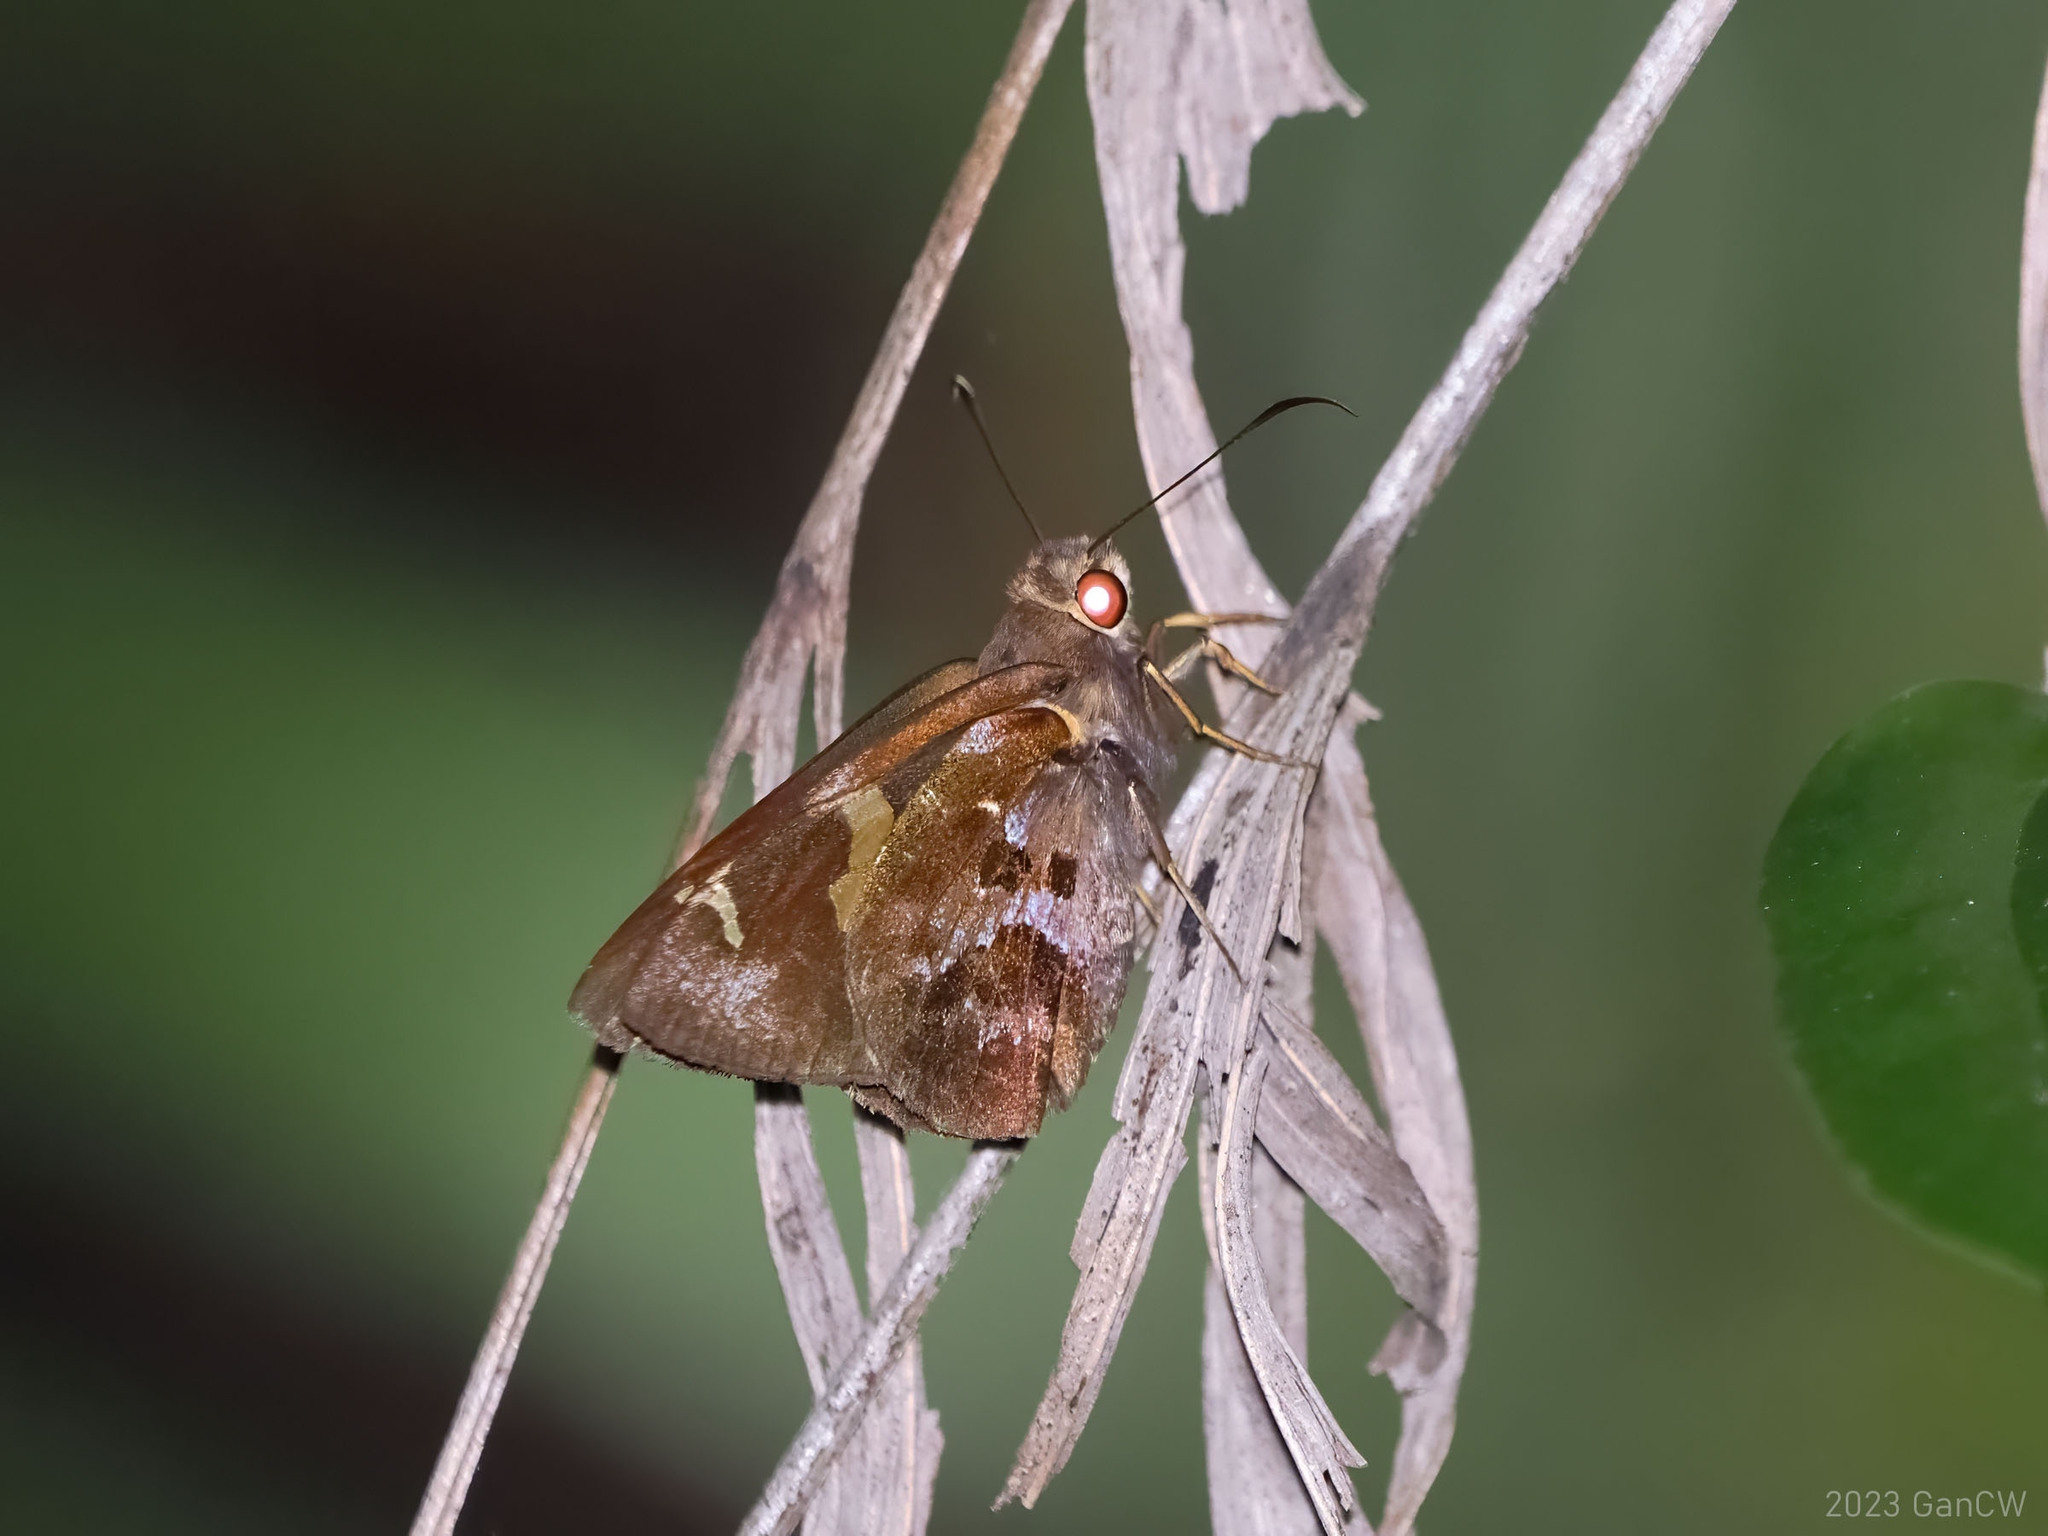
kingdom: Animalia
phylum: Arthropoda
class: Insecta
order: Lepidoptera
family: Hesperiidae
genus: Hewitsoniella
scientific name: Hewitsoniella migonitis
